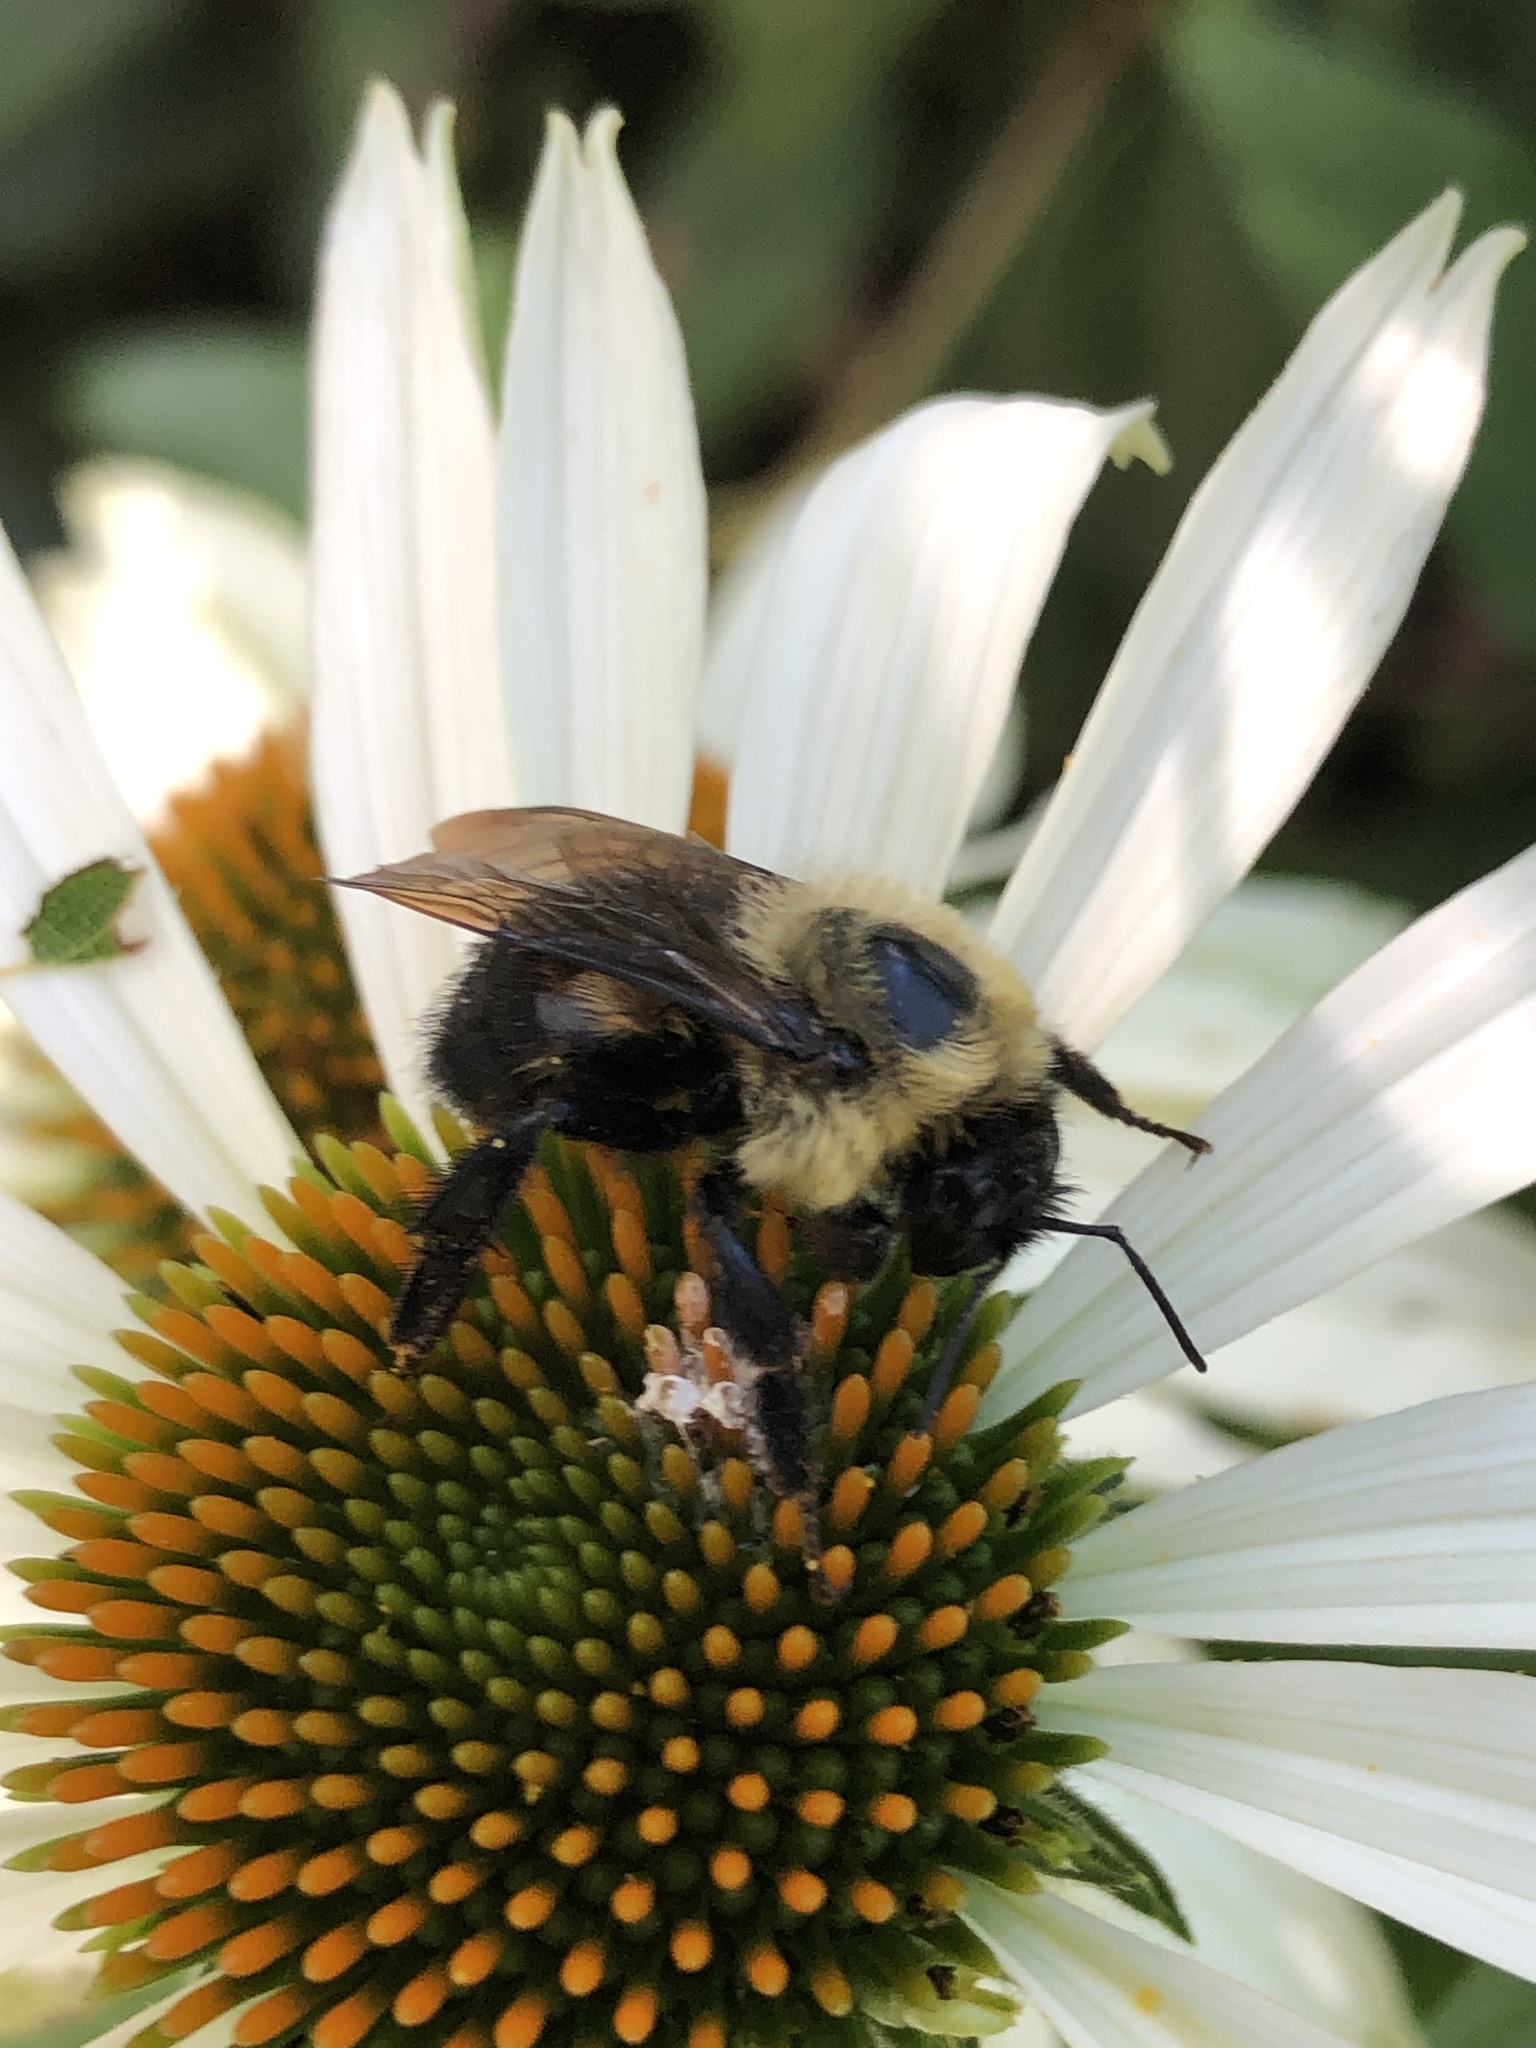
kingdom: Animalia
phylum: Arthropoda
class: Insecta
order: Hymenoptera
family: Apidae
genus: Bombus
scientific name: Bombus griseocollis
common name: Brown-belted bumble bee
